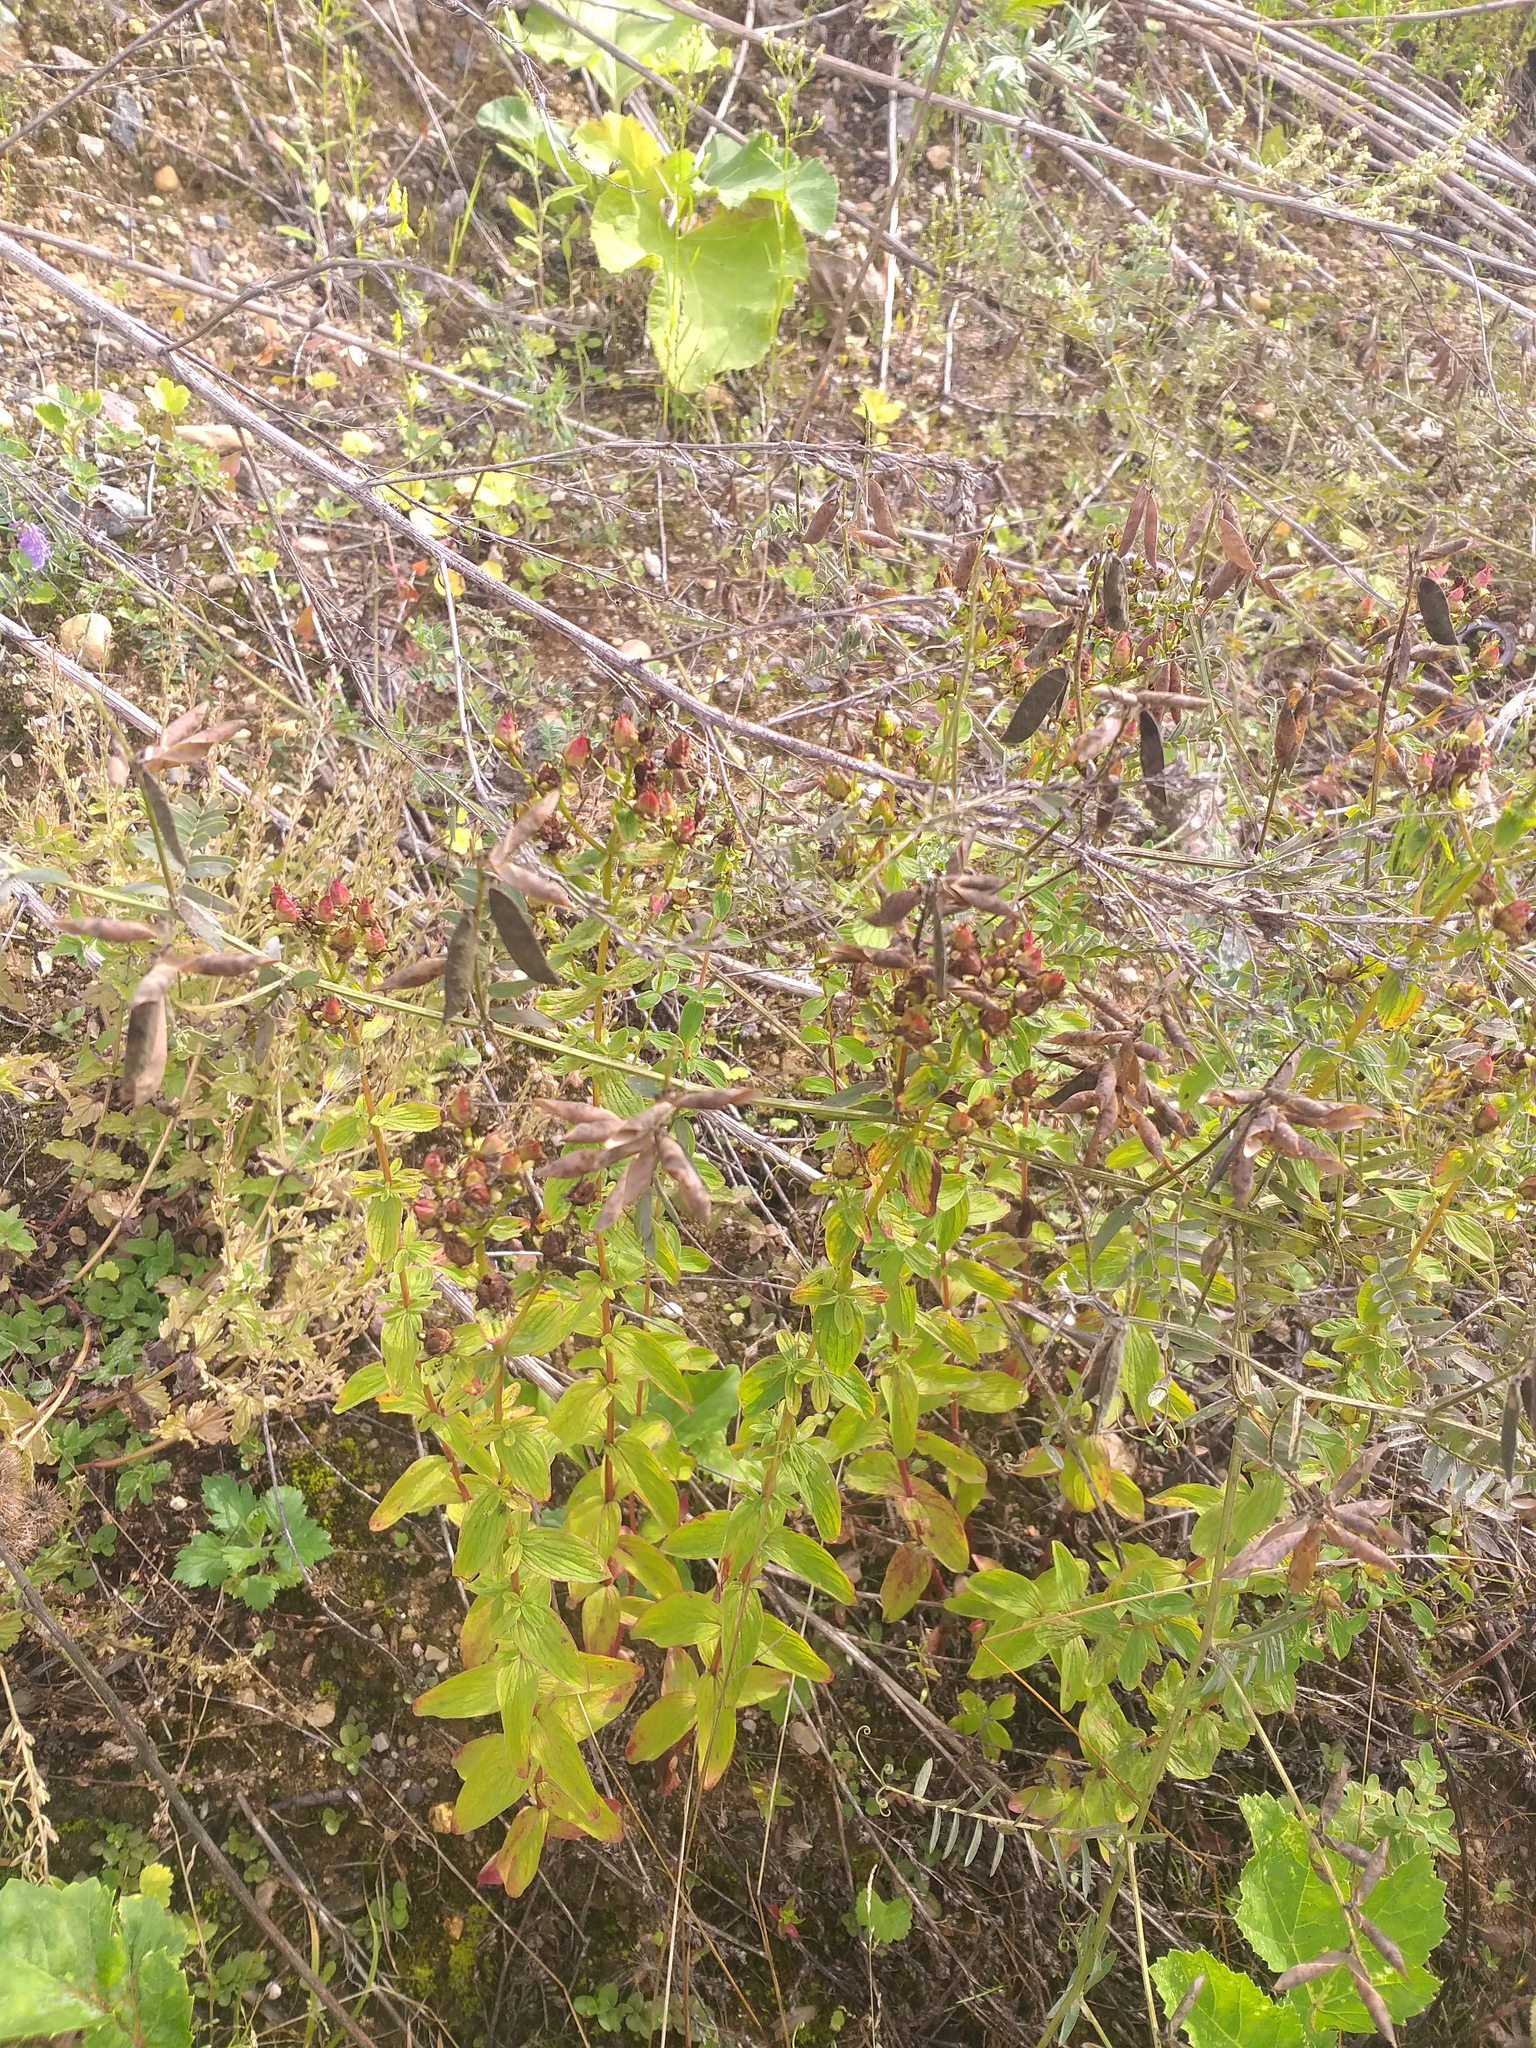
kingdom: Plantae
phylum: Tracheophyta
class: Magnoliopsida
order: Malpighiales
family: Hypericaceae
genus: Hypericum
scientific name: Hypericum maculatum
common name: Imperforate st. john's-wort
